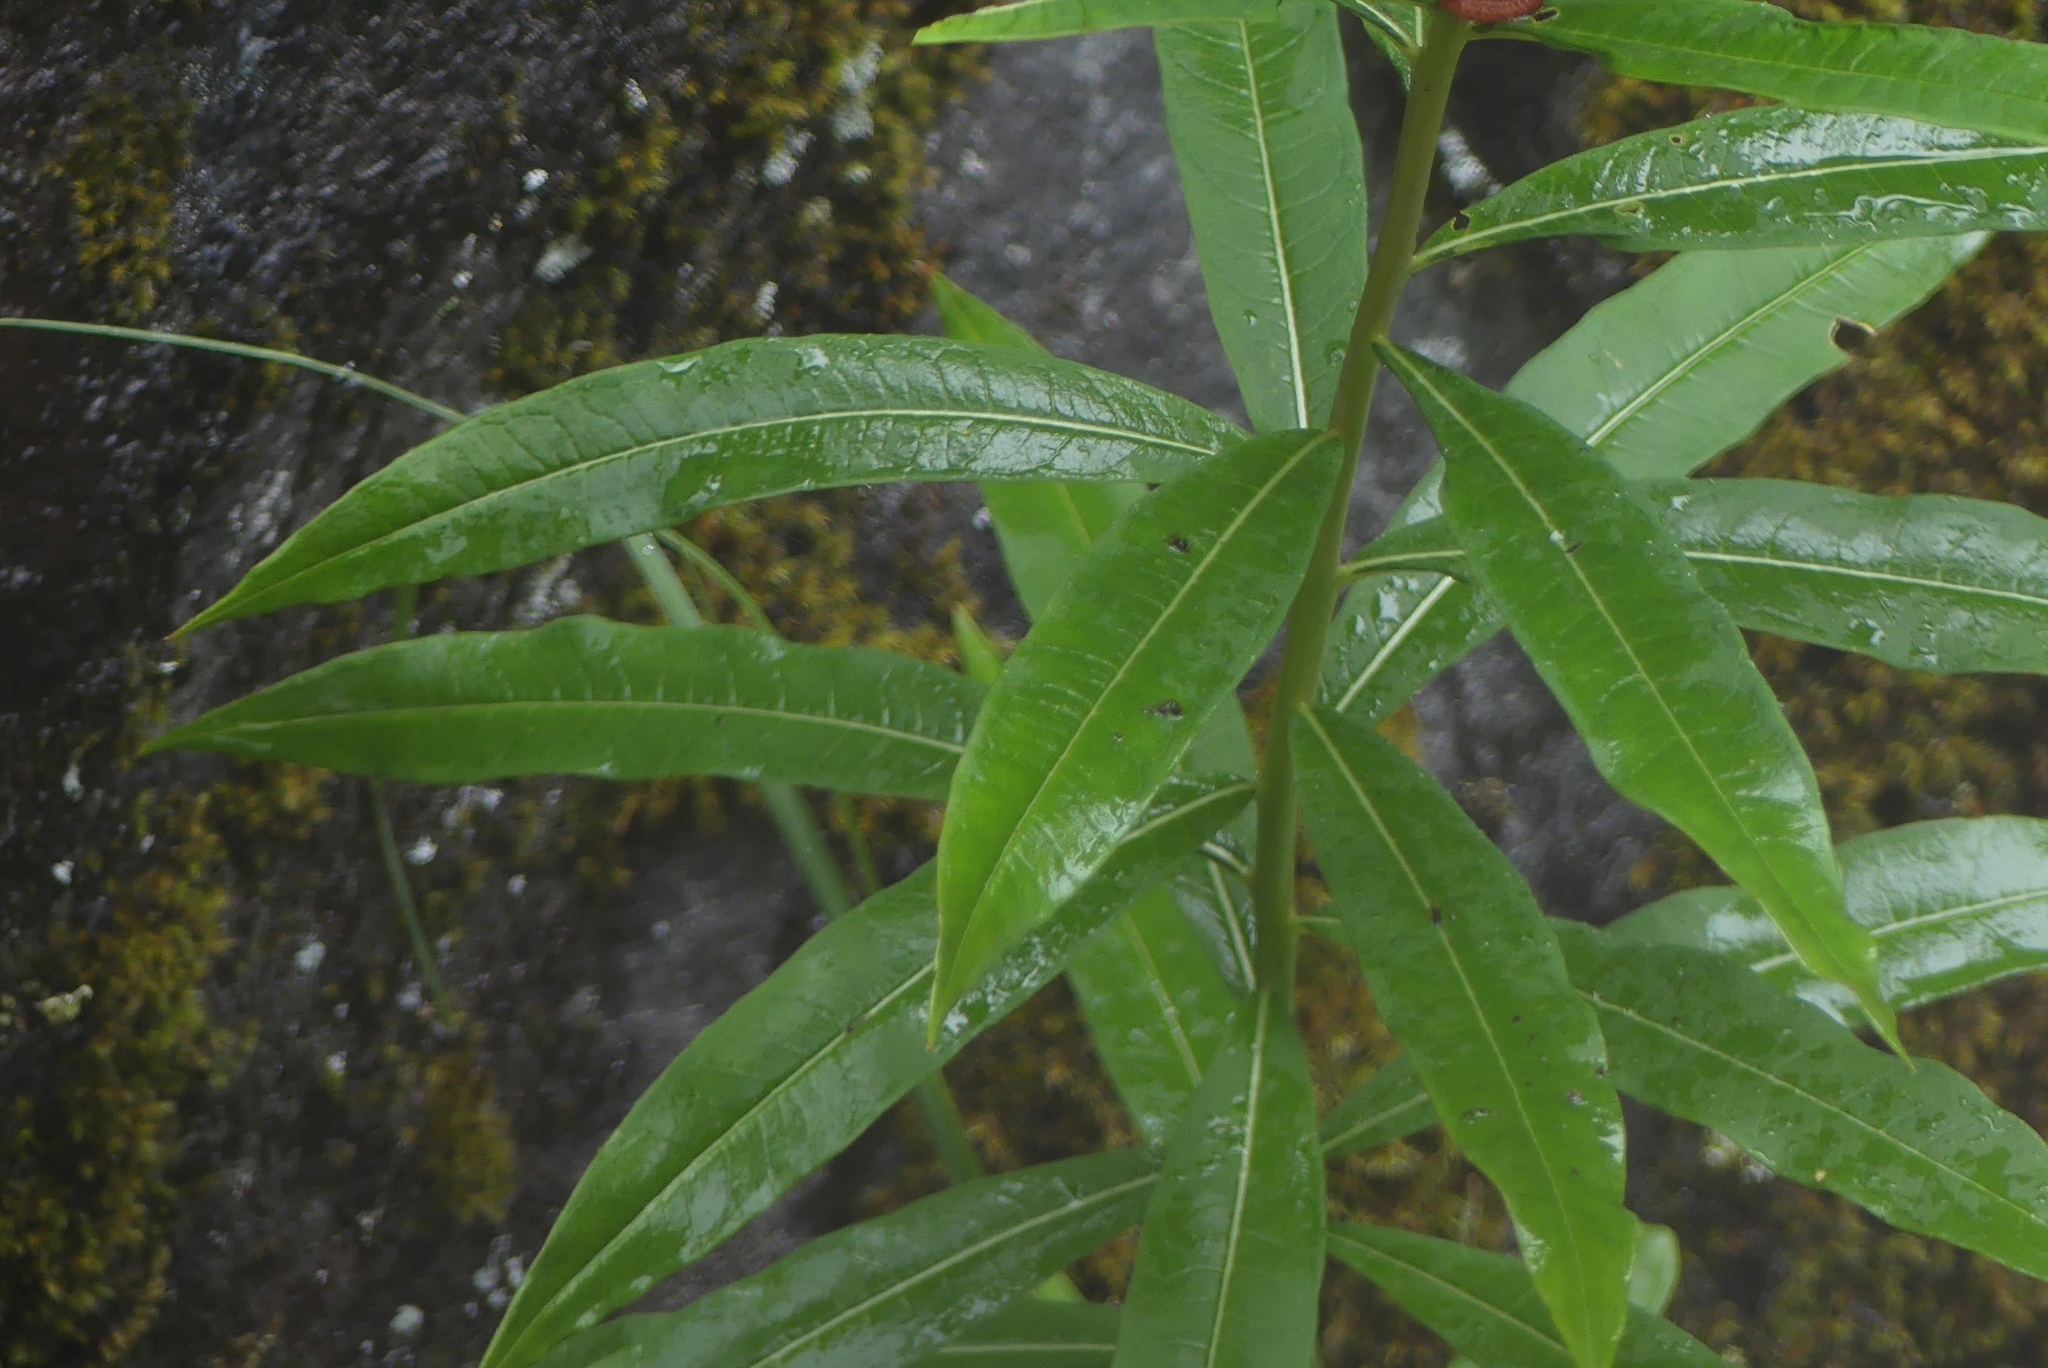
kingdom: Plantae
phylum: Tracheophyta
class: Magnoliopsida
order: Myrtales
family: Onagraceae
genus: Chamaenerion
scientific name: Chamaenerion angustifolium
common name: Fireweed
